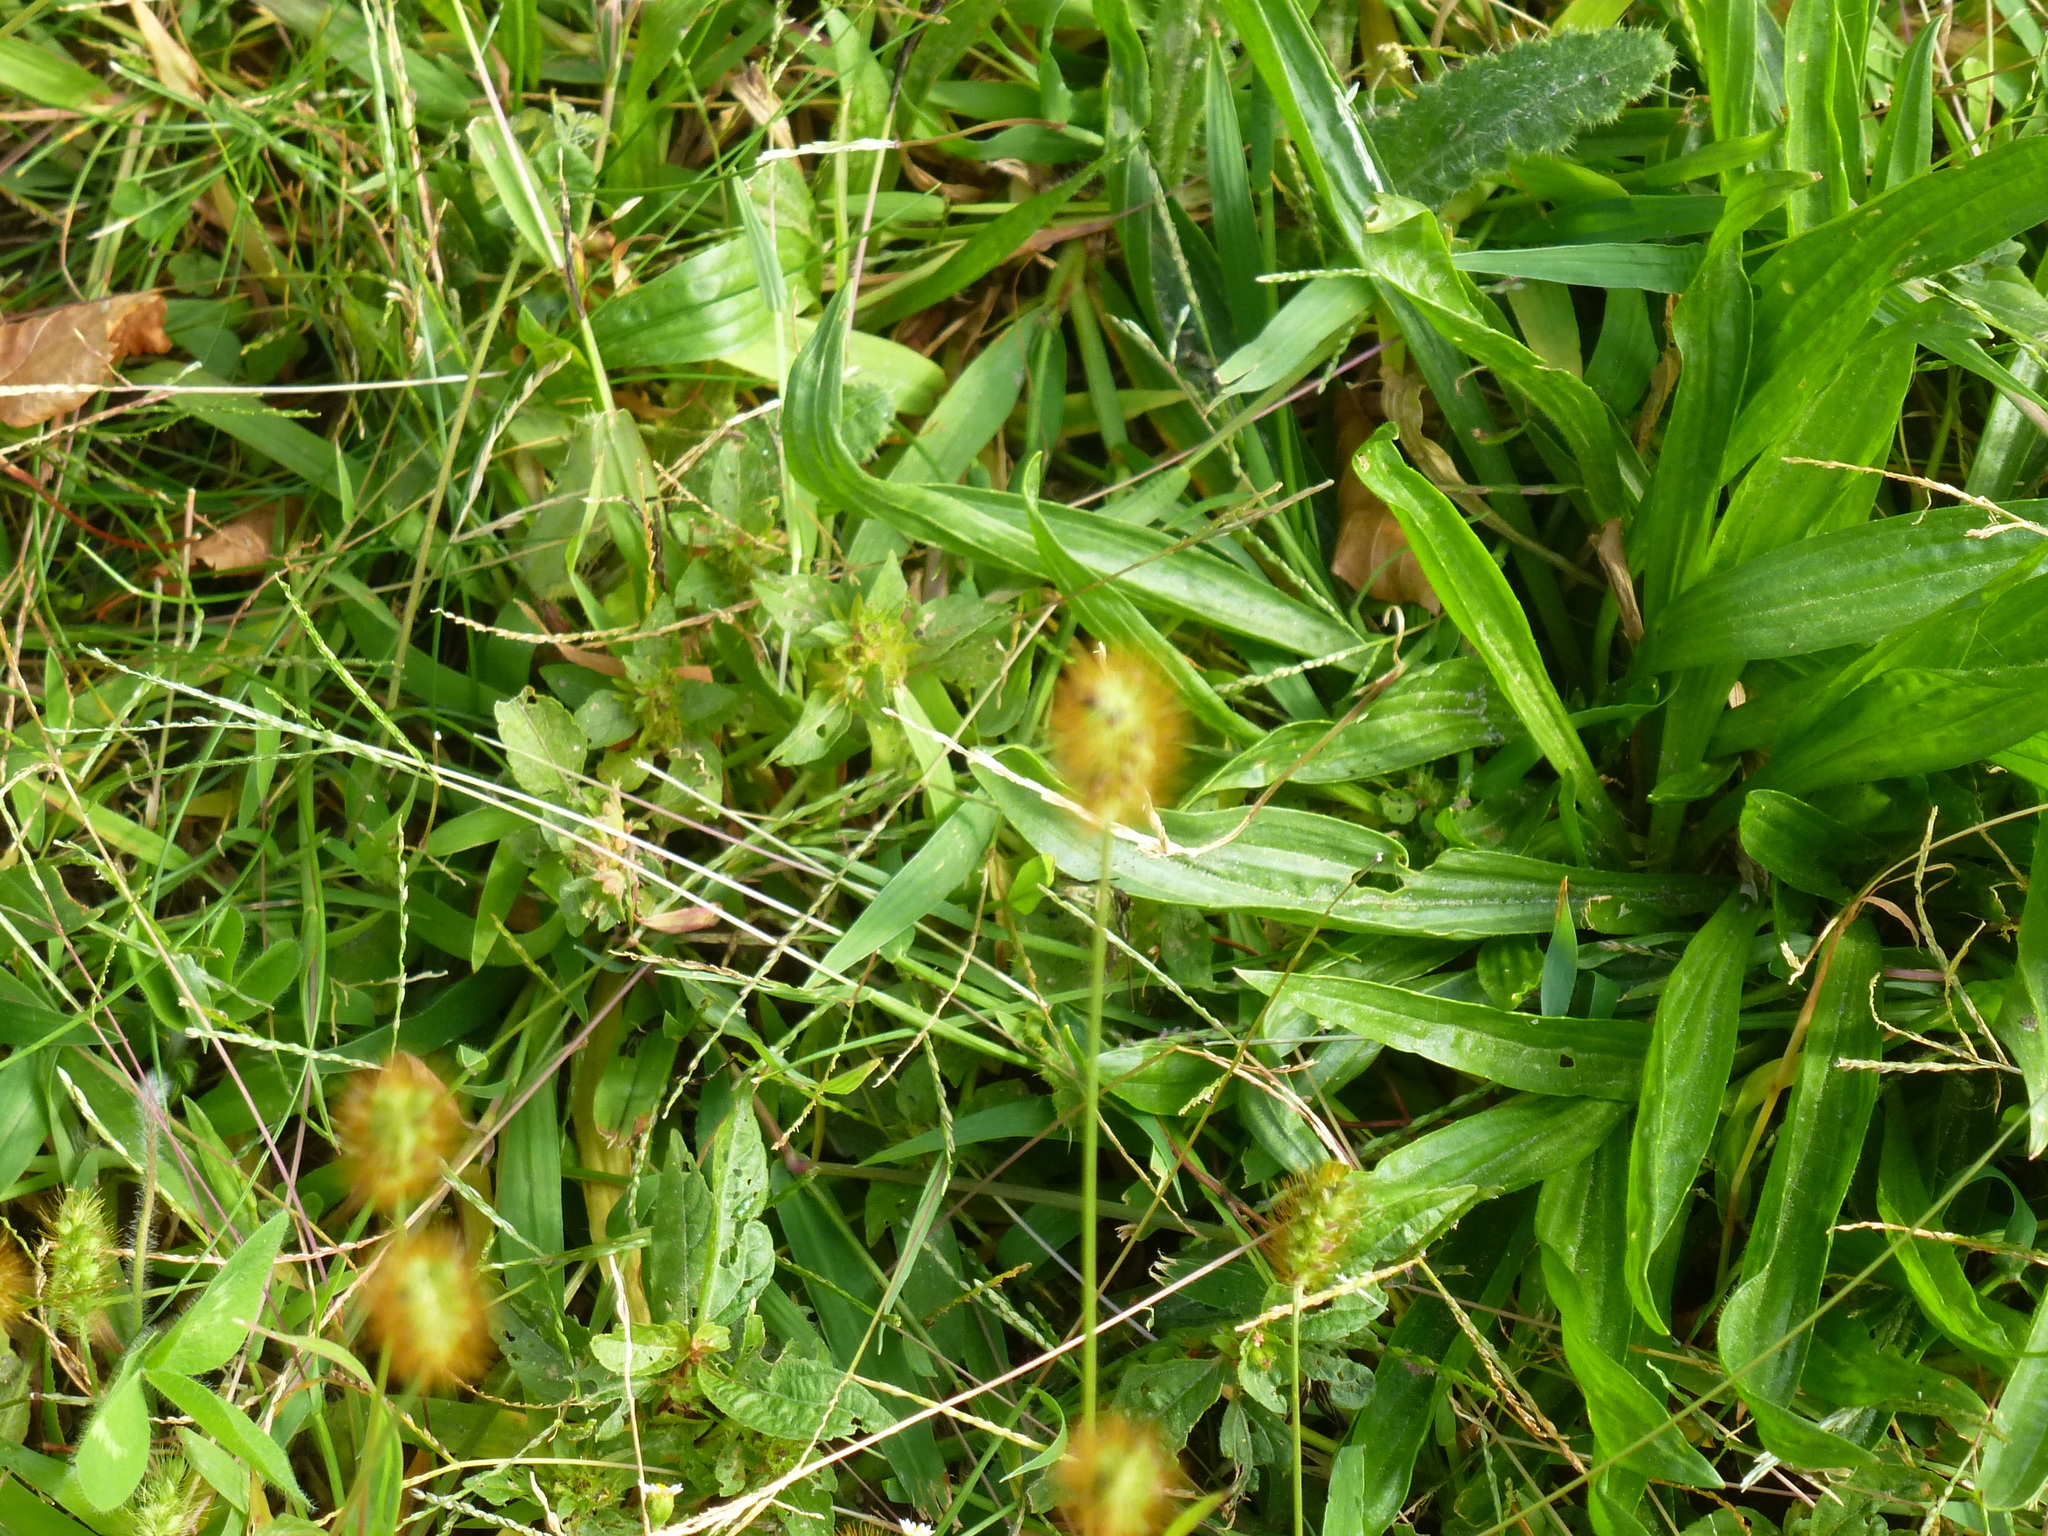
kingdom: Plantae
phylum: Tracheophyta
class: Magnoliopsida
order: Lamiales
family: Plantaginaceae
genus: Plantago
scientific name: Plantago lanceolata
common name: Ribwort plantain
